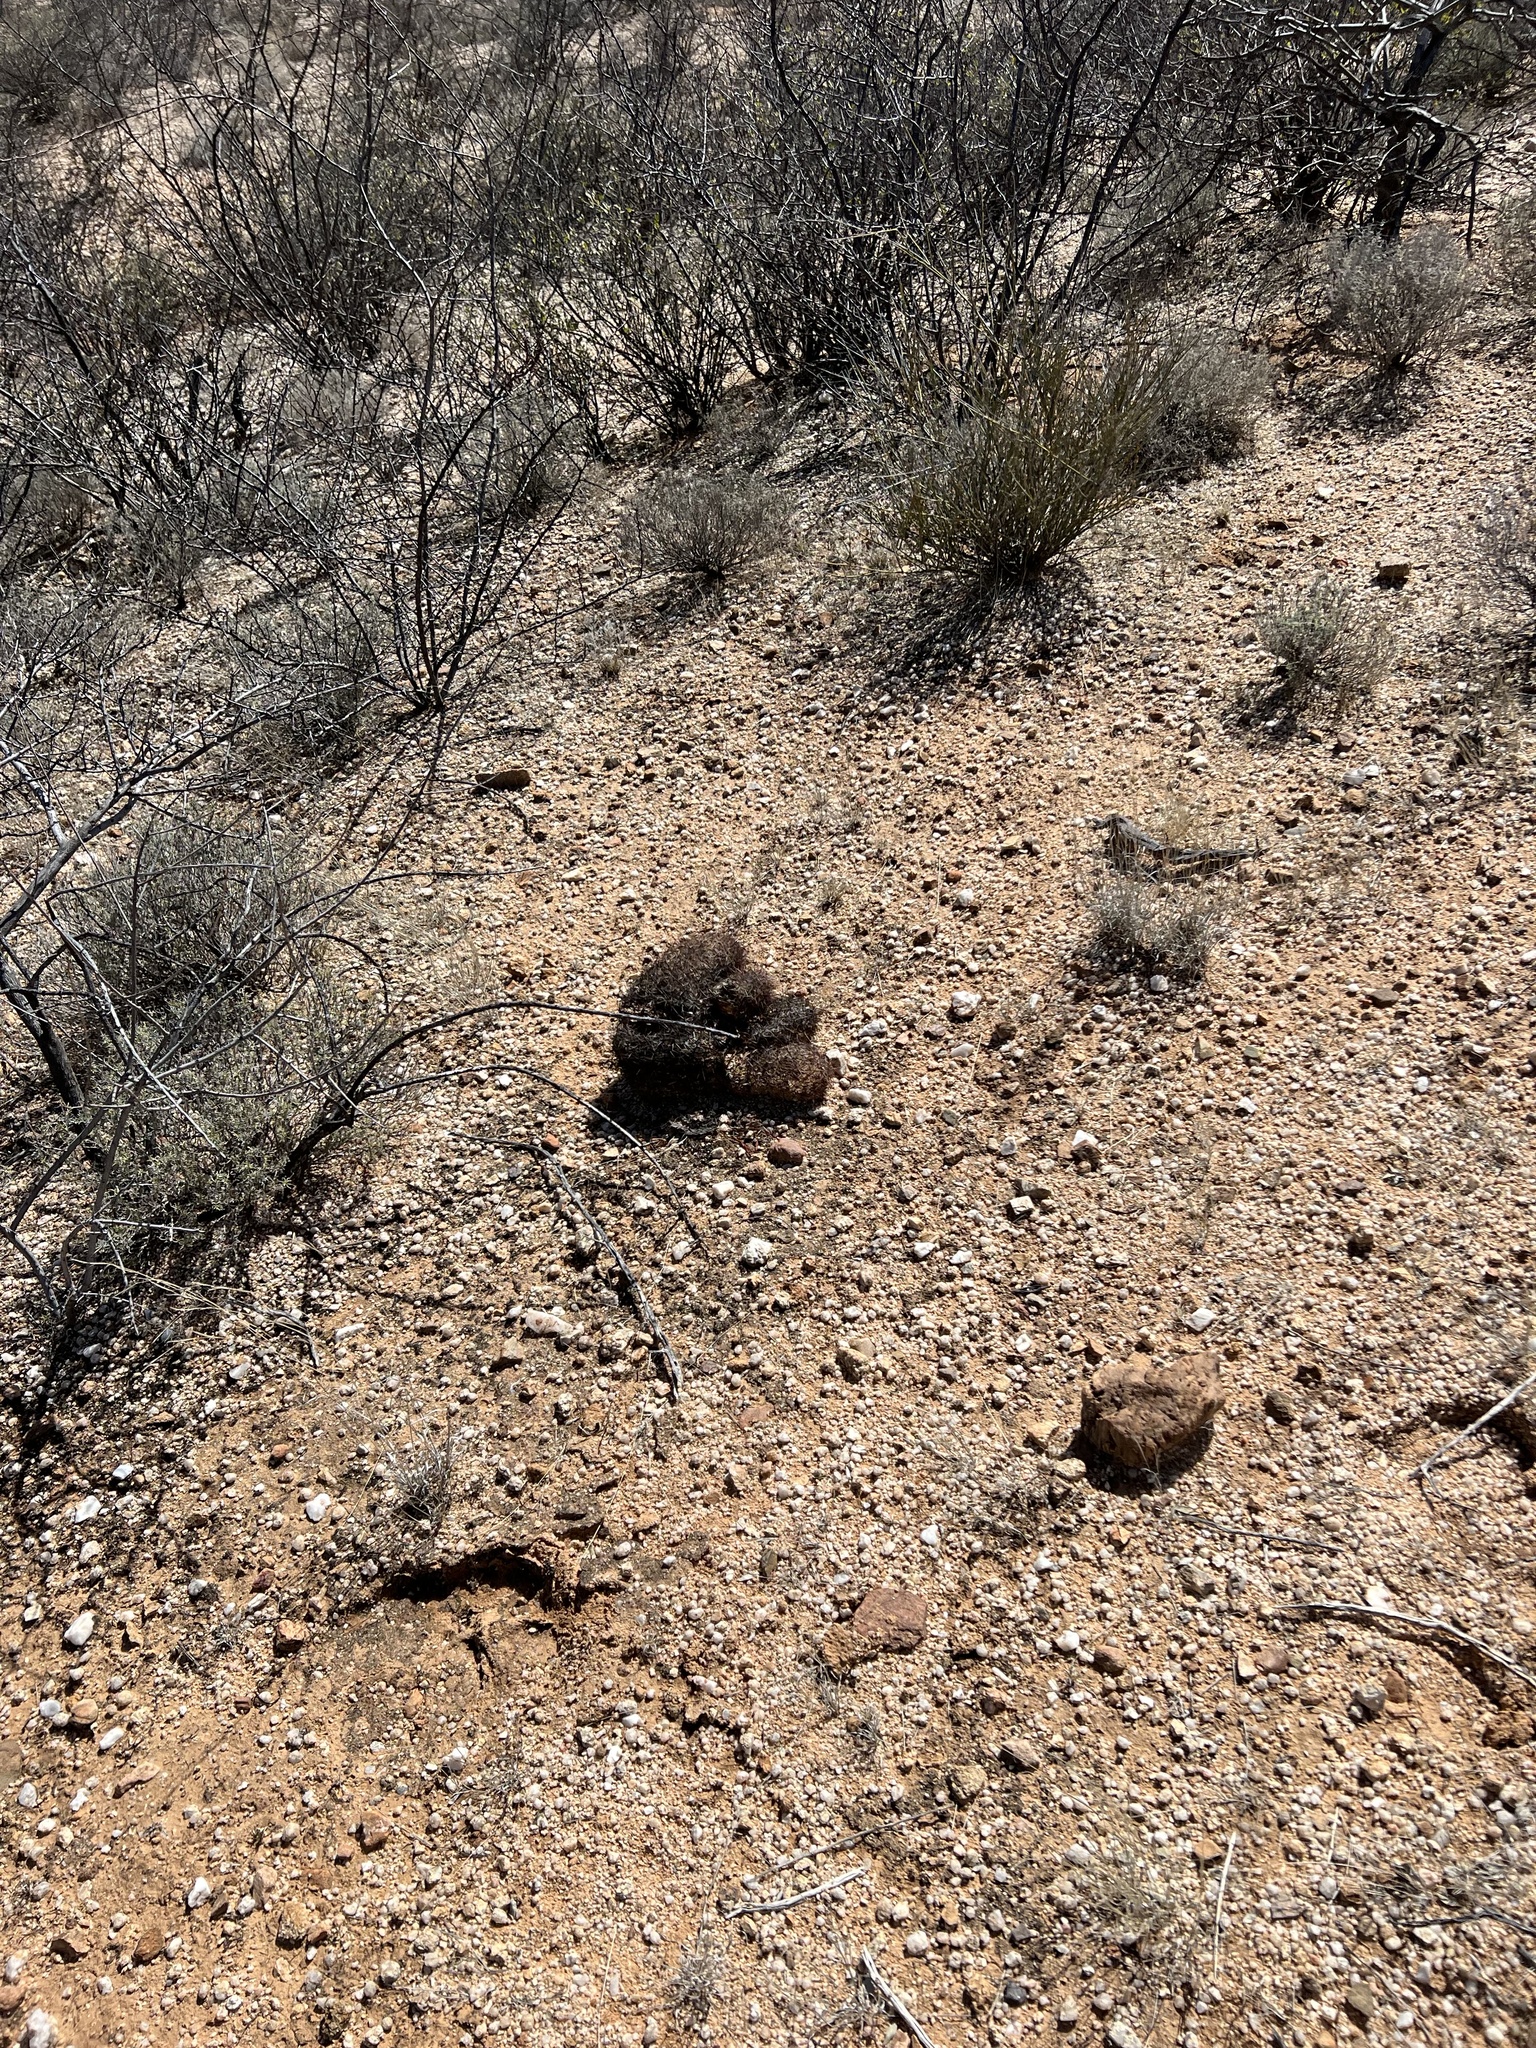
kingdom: Plantae
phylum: Tracheophyta
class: Magnoliopsida
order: Caryophyllales
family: Cactaceae
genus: Sclerocactus
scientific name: Sclerocactus johnsonii
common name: Eight-spine fishhook cactus
